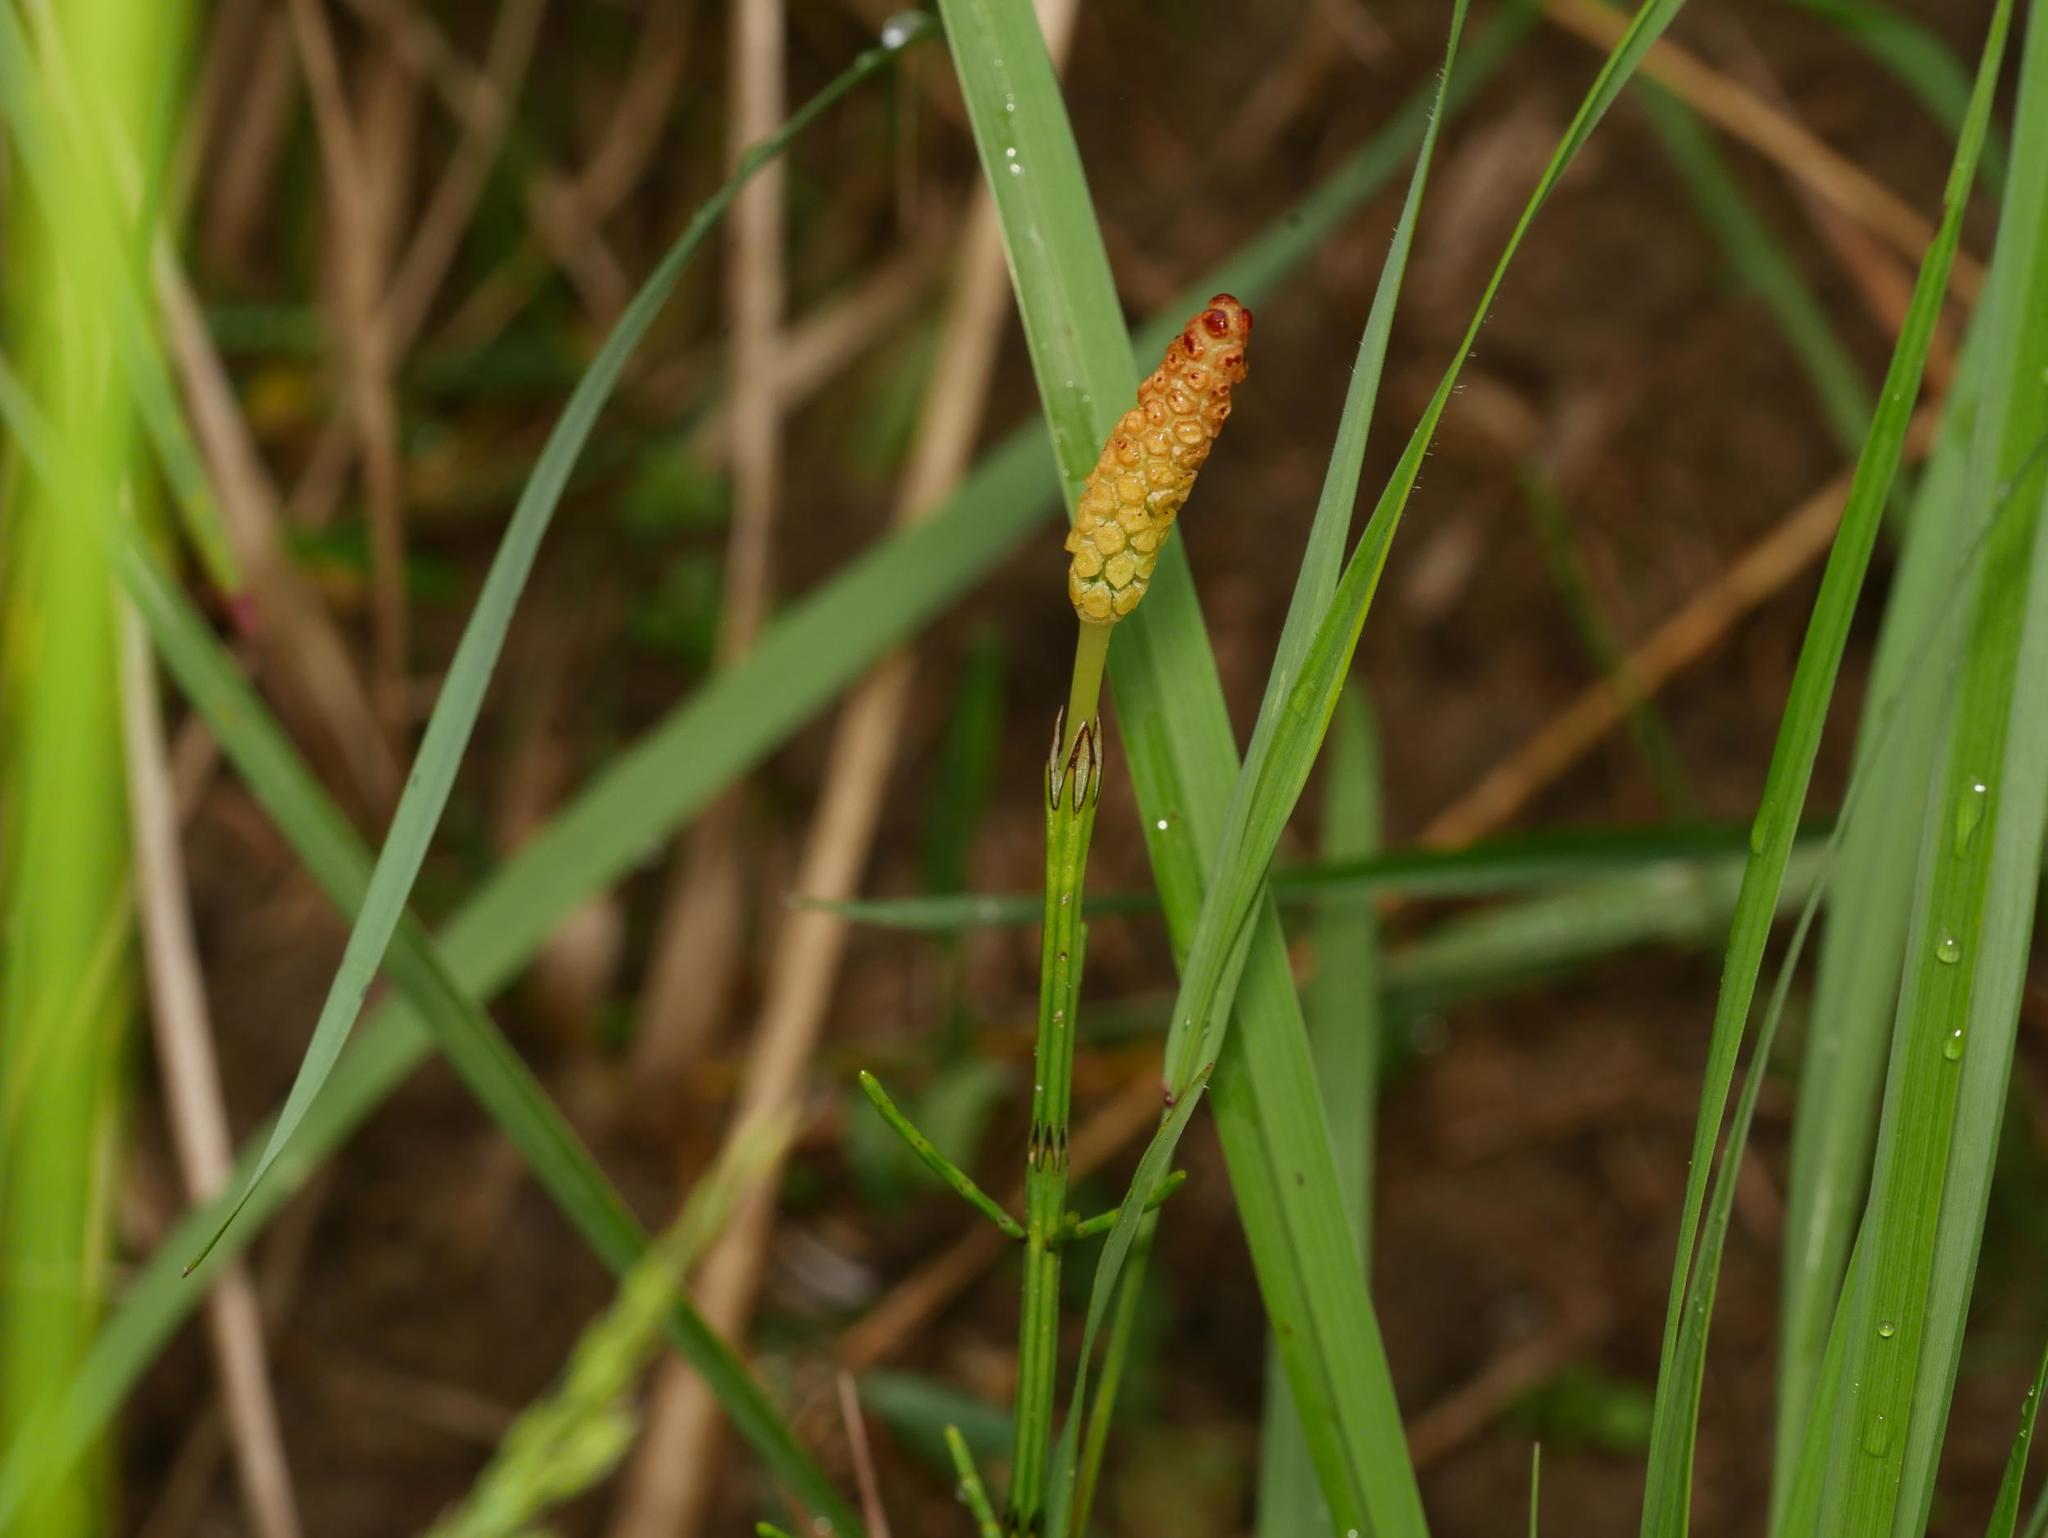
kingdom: Plantae
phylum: Tracheophyta
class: Polypodiopsida
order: Equisetales
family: Equisetaceae
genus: Equisetum
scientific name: Equisetum palustre
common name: Marsh horsetail
